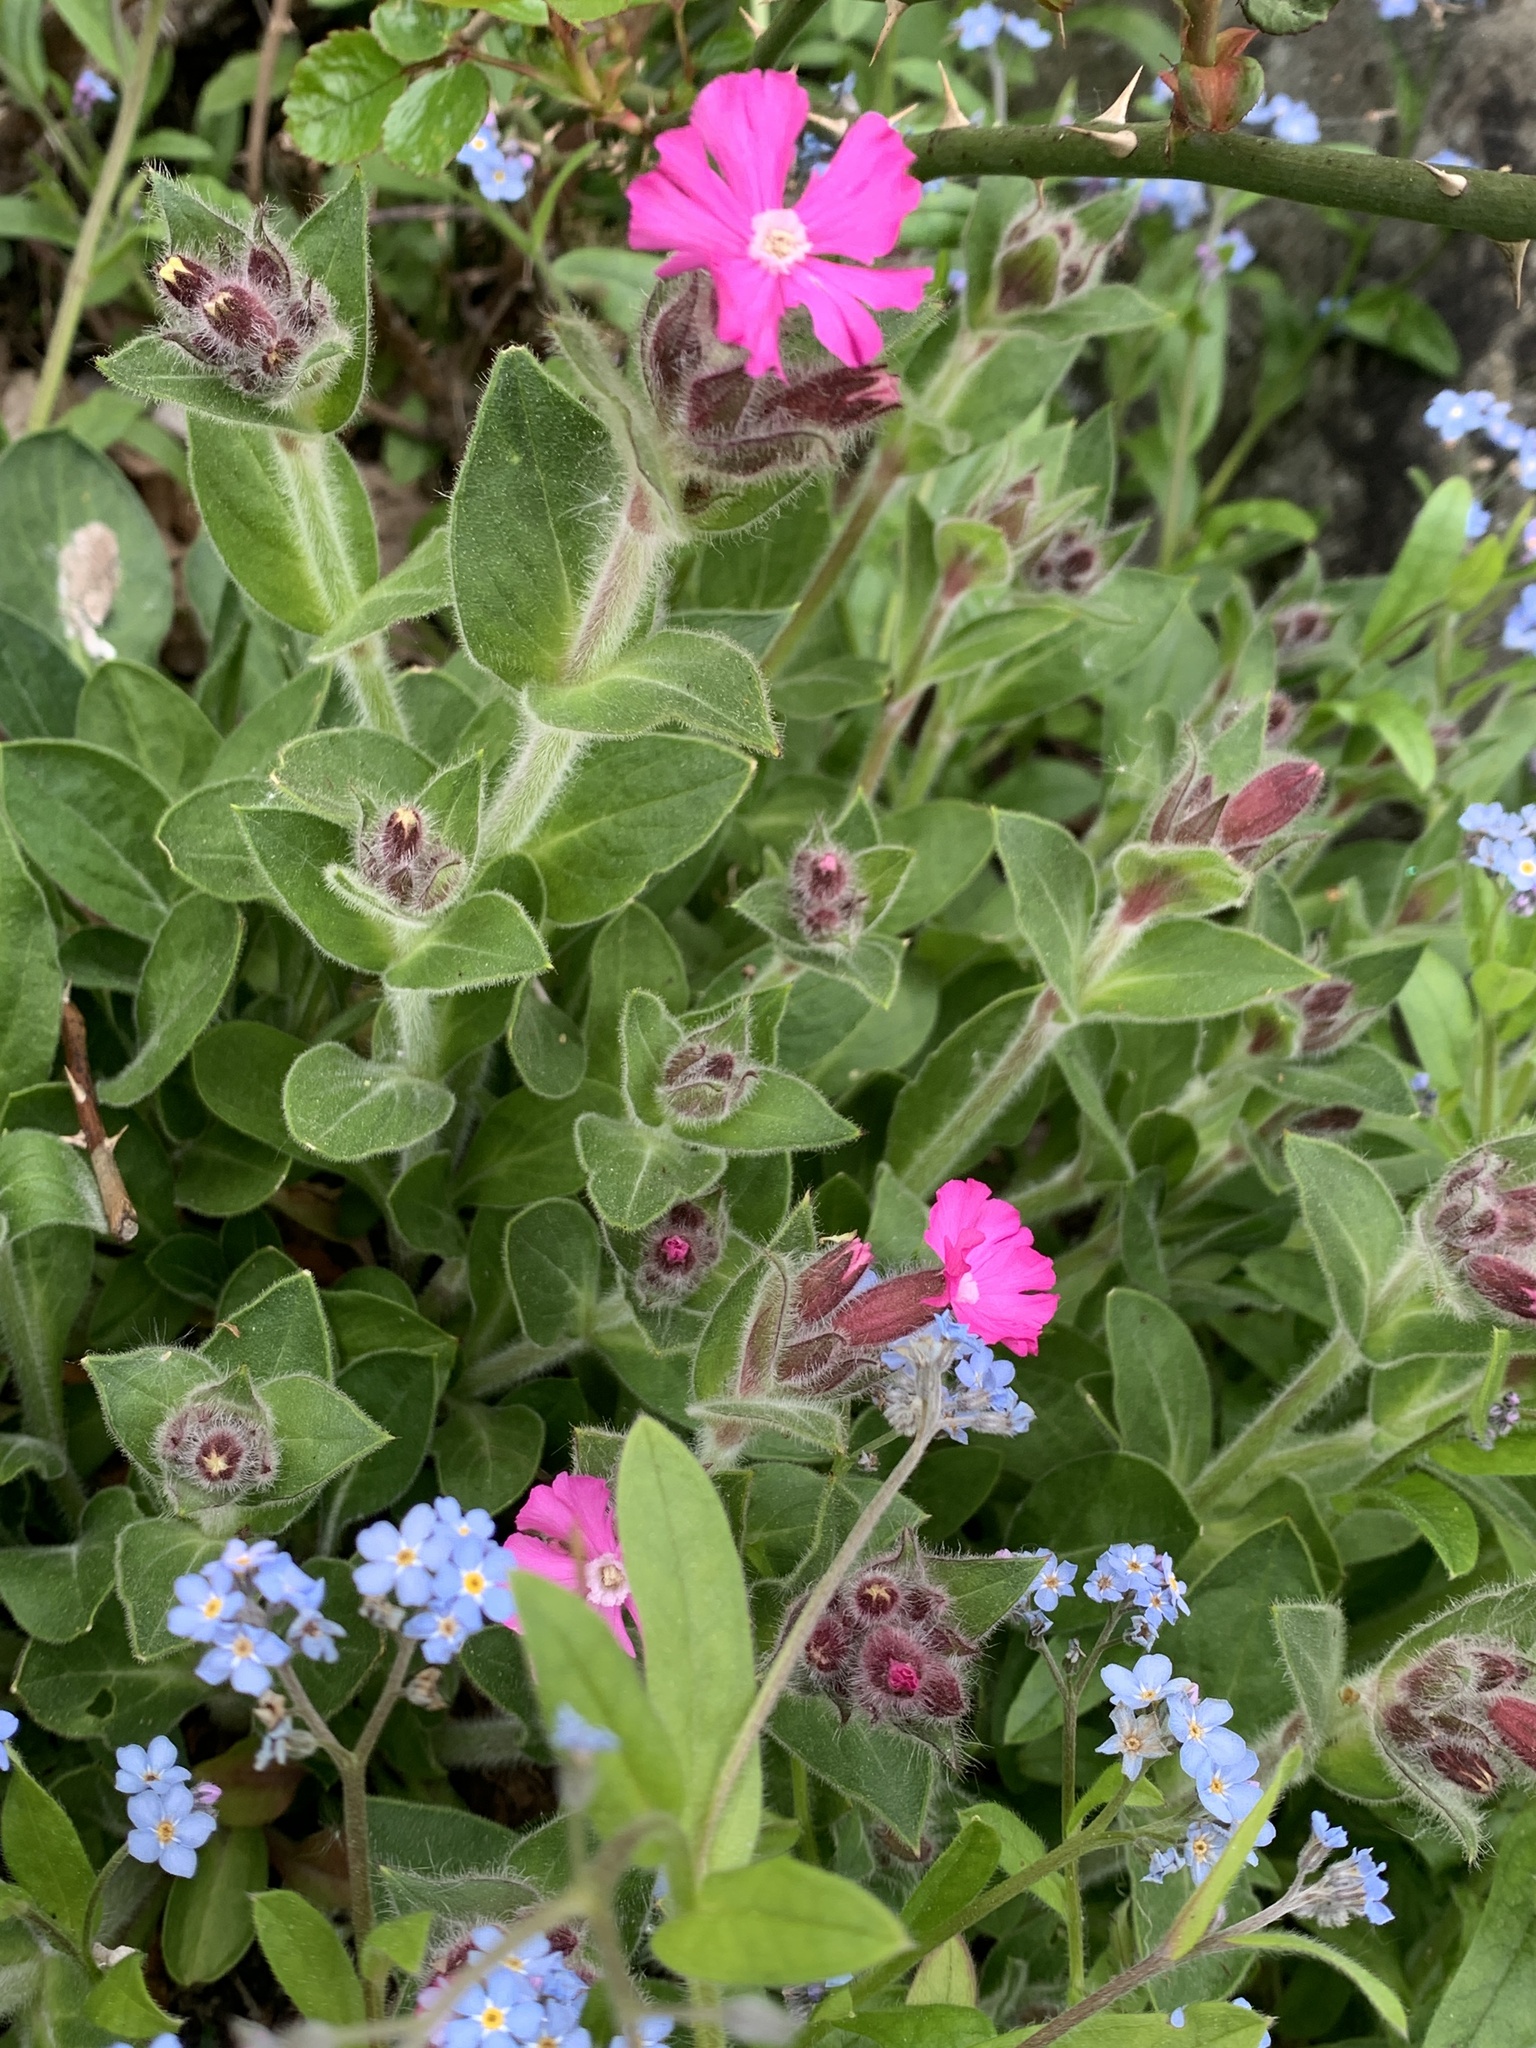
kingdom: Plantae
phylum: Tracheophyta
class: Magnoliopsida
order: Caryophyllales
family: Caryophyllaceae
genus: Silene
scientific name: Silene dioica
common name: Red campion
